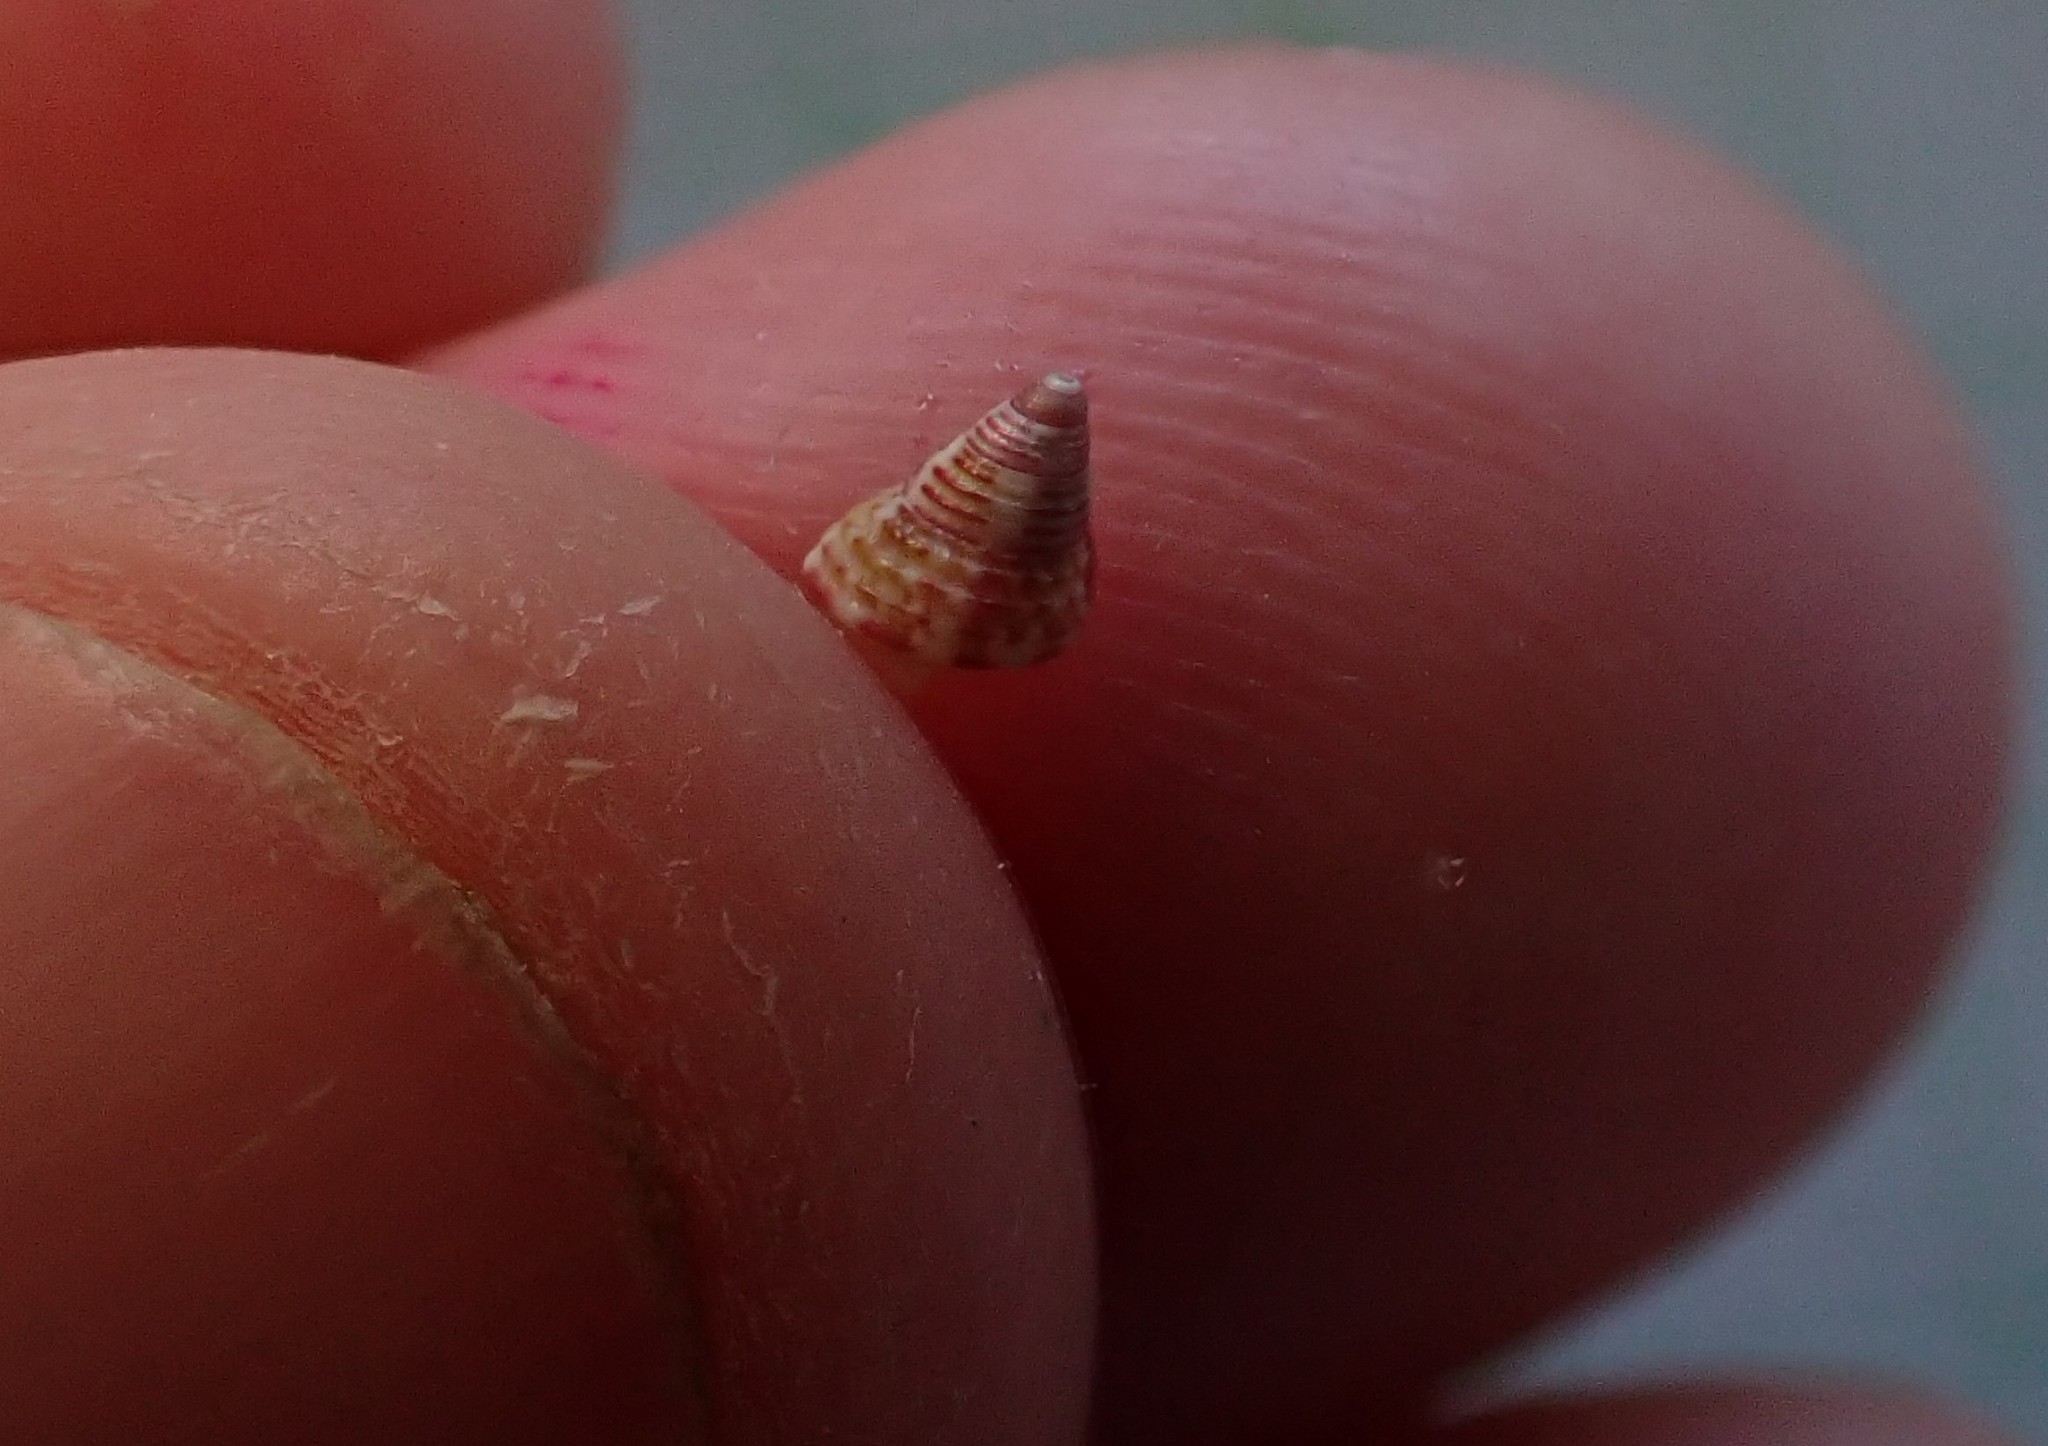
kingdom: Animalia
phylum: Mollusca
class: Gastropoda
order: Trochida
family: Trochidae
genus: Micrelenchus
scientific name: Micrelenchus purpureus
